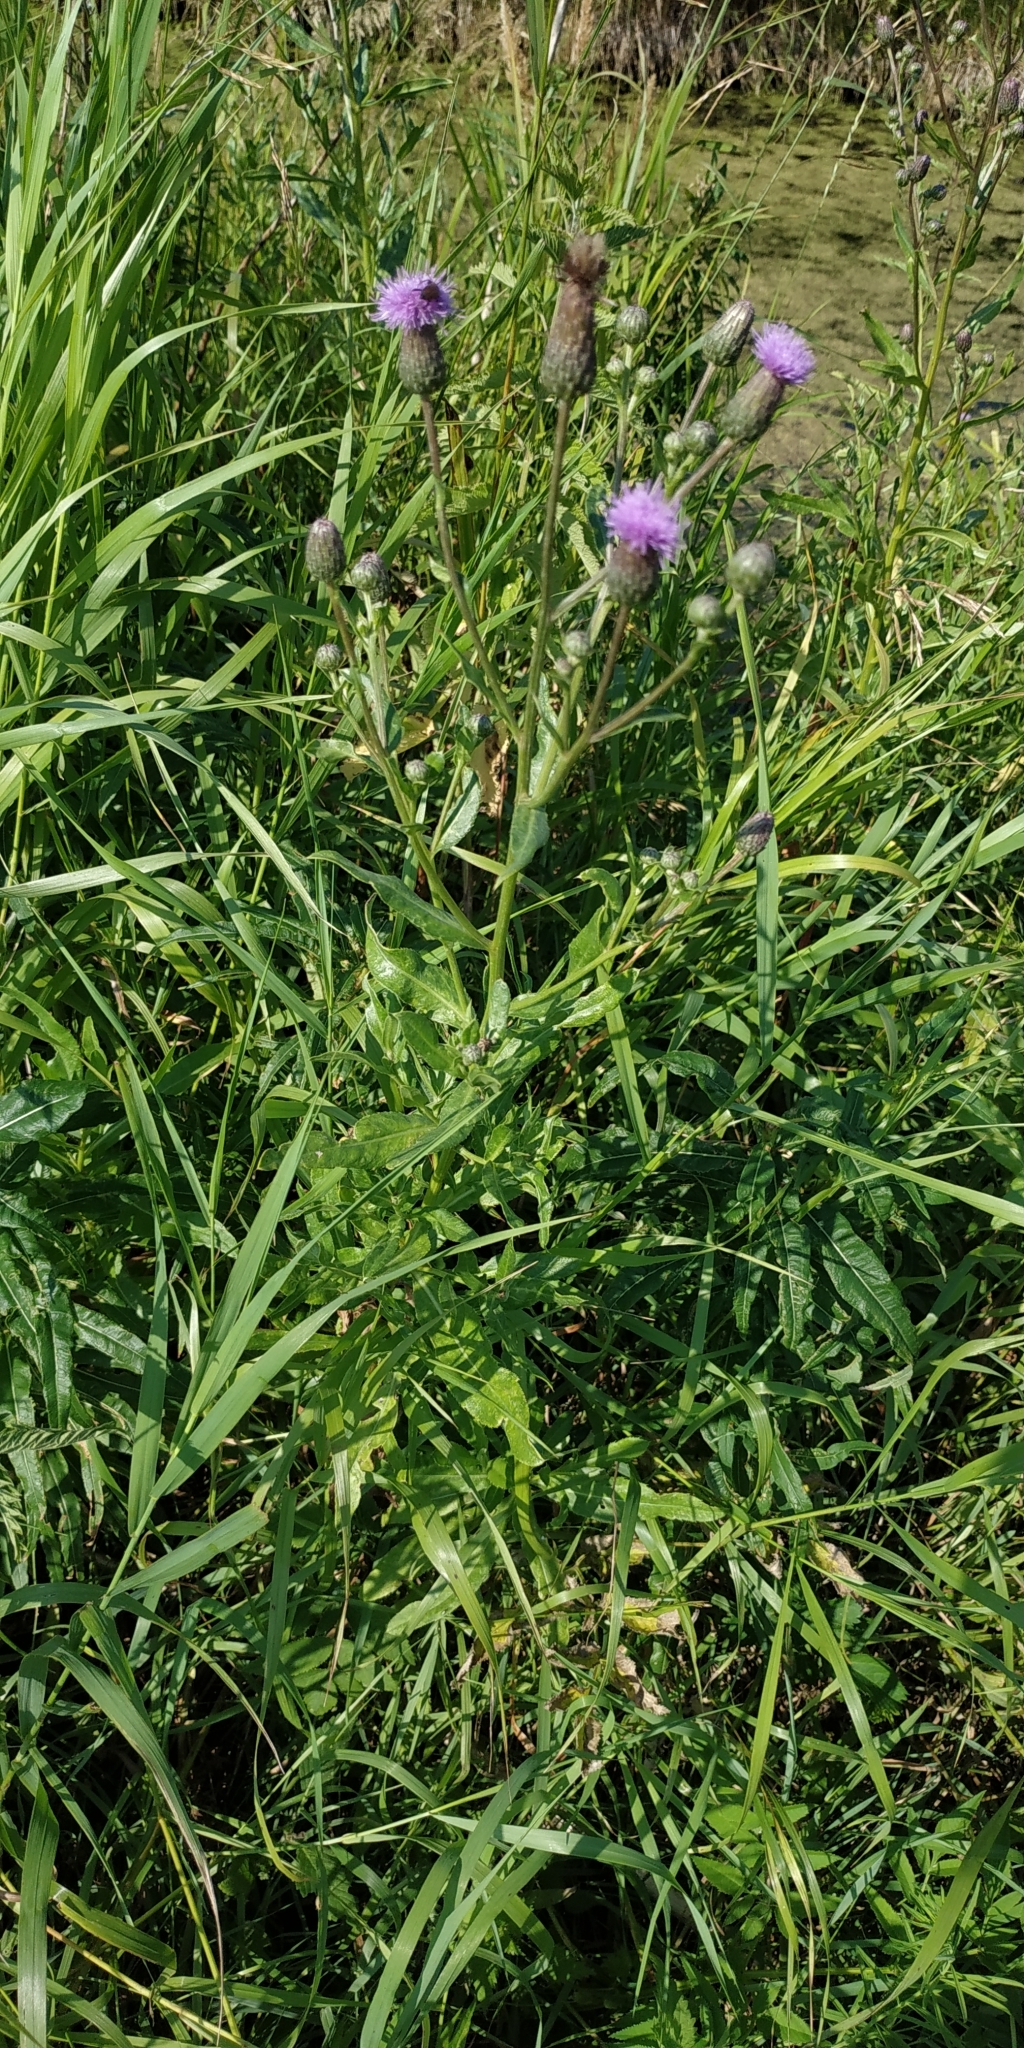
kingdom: Plantae
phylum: Tracheophyta
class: Magnoliopsida
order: Asterales
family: Asteraceae
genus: Cirsium
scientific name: Cirsium arvense
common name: Creeping thistle
